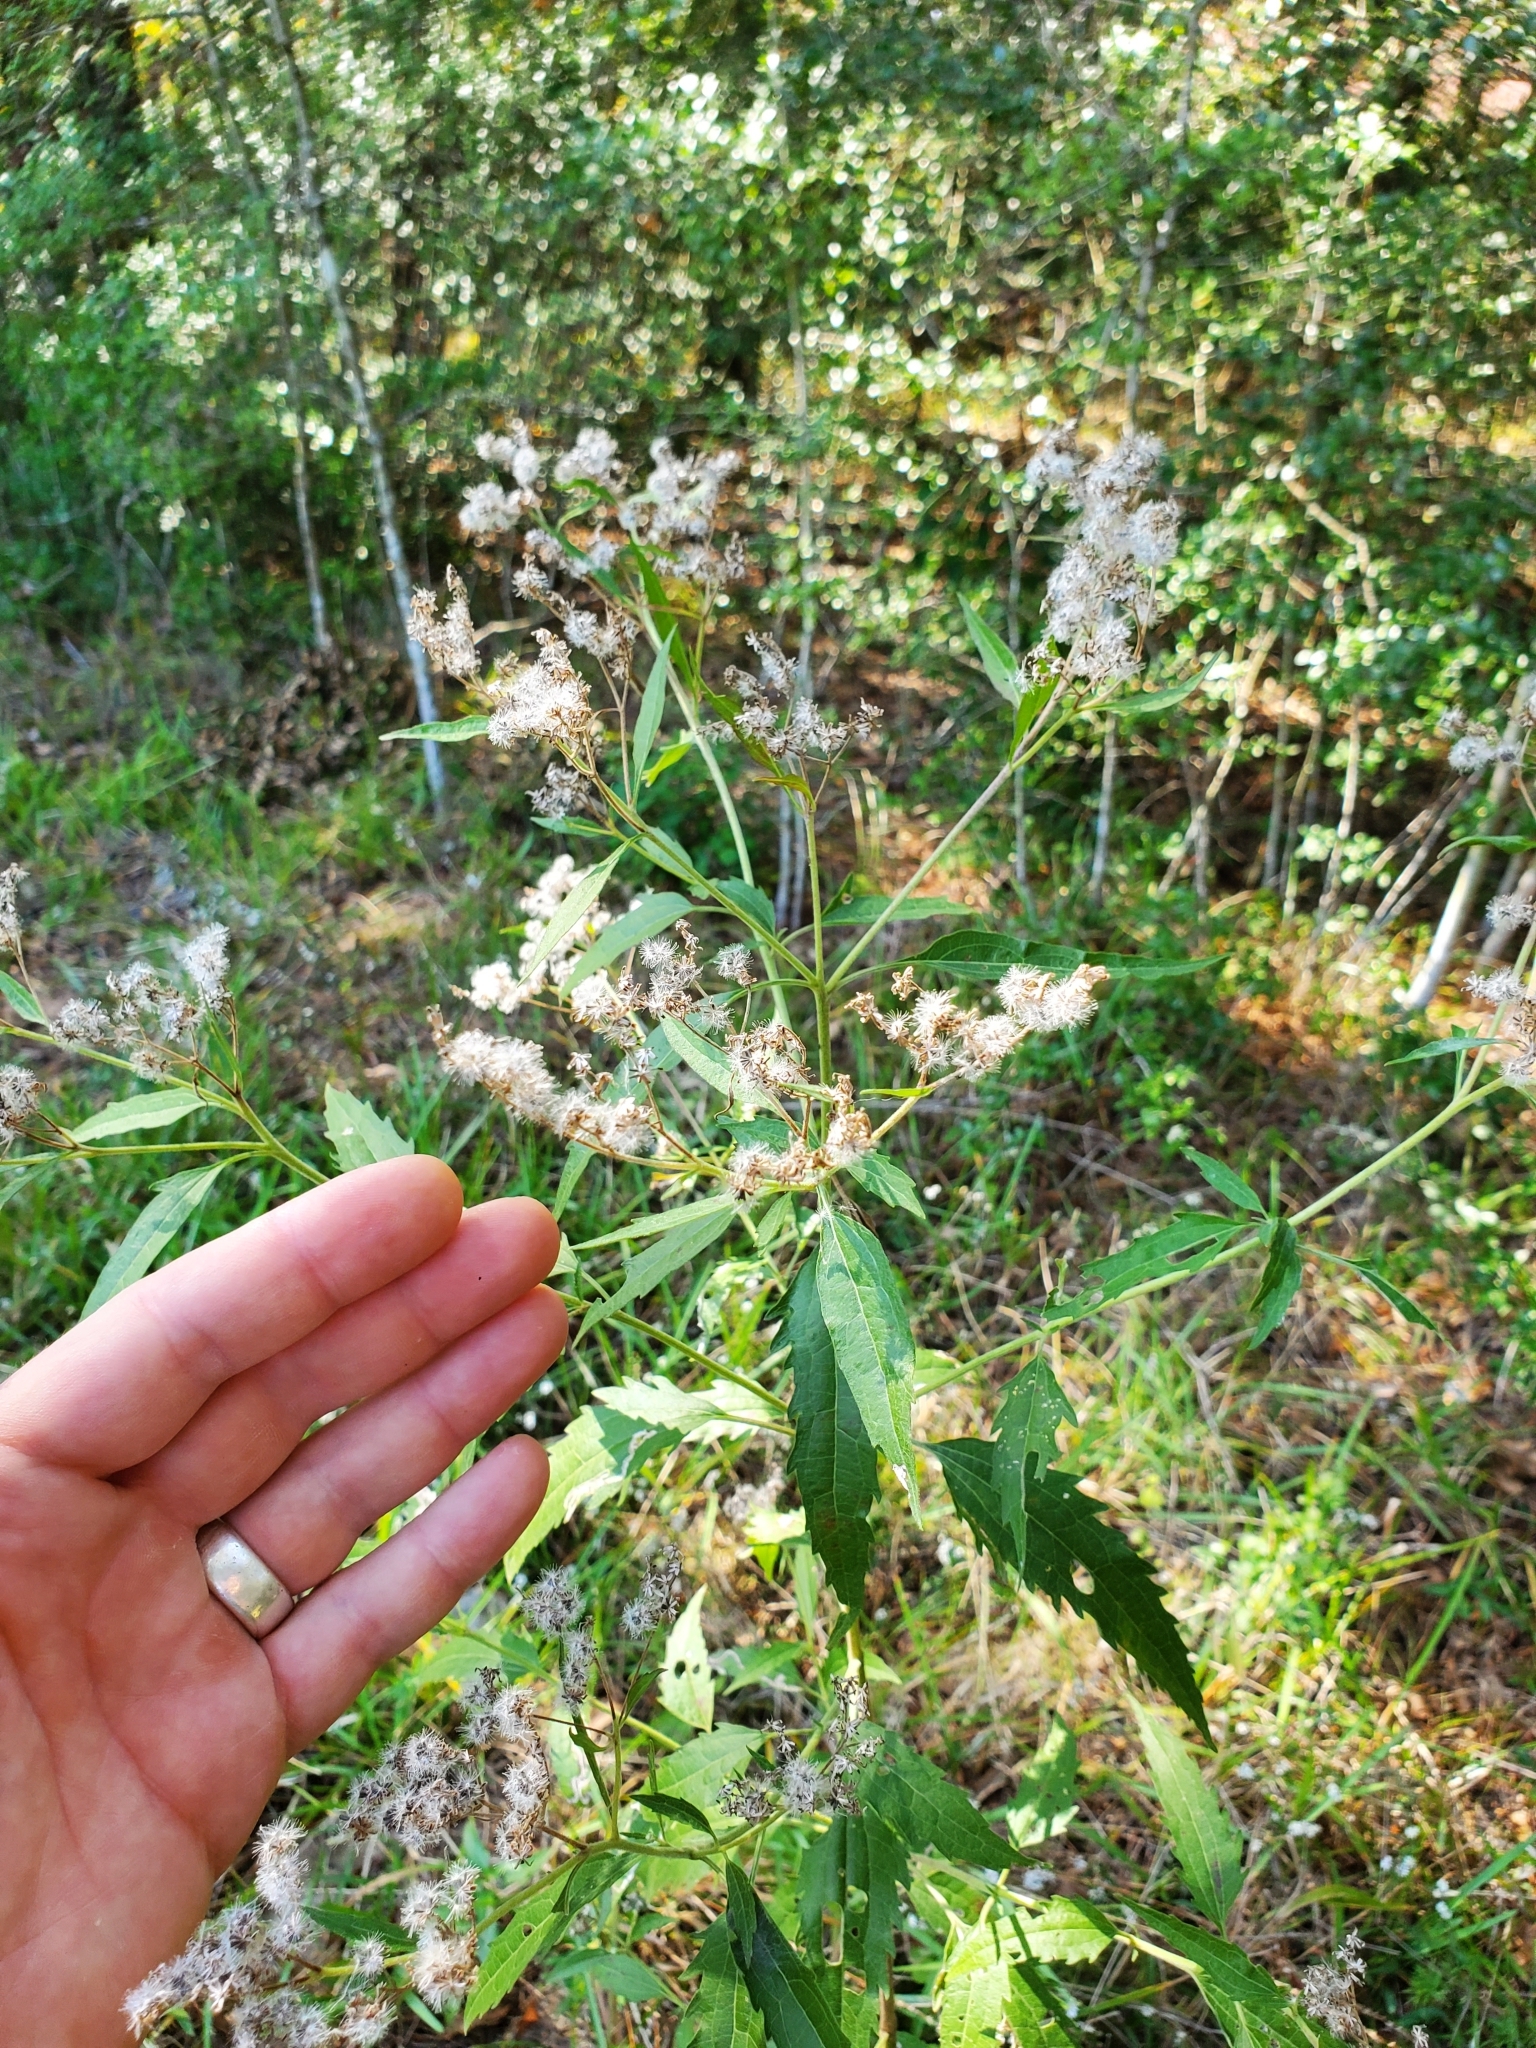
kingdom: Plantae
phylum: Tracheophyta
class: Magnoliopsida
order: Asterales
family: Asteraceae
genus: Eupatorium
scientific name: Eupatorium serotinum
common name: Late boneset
